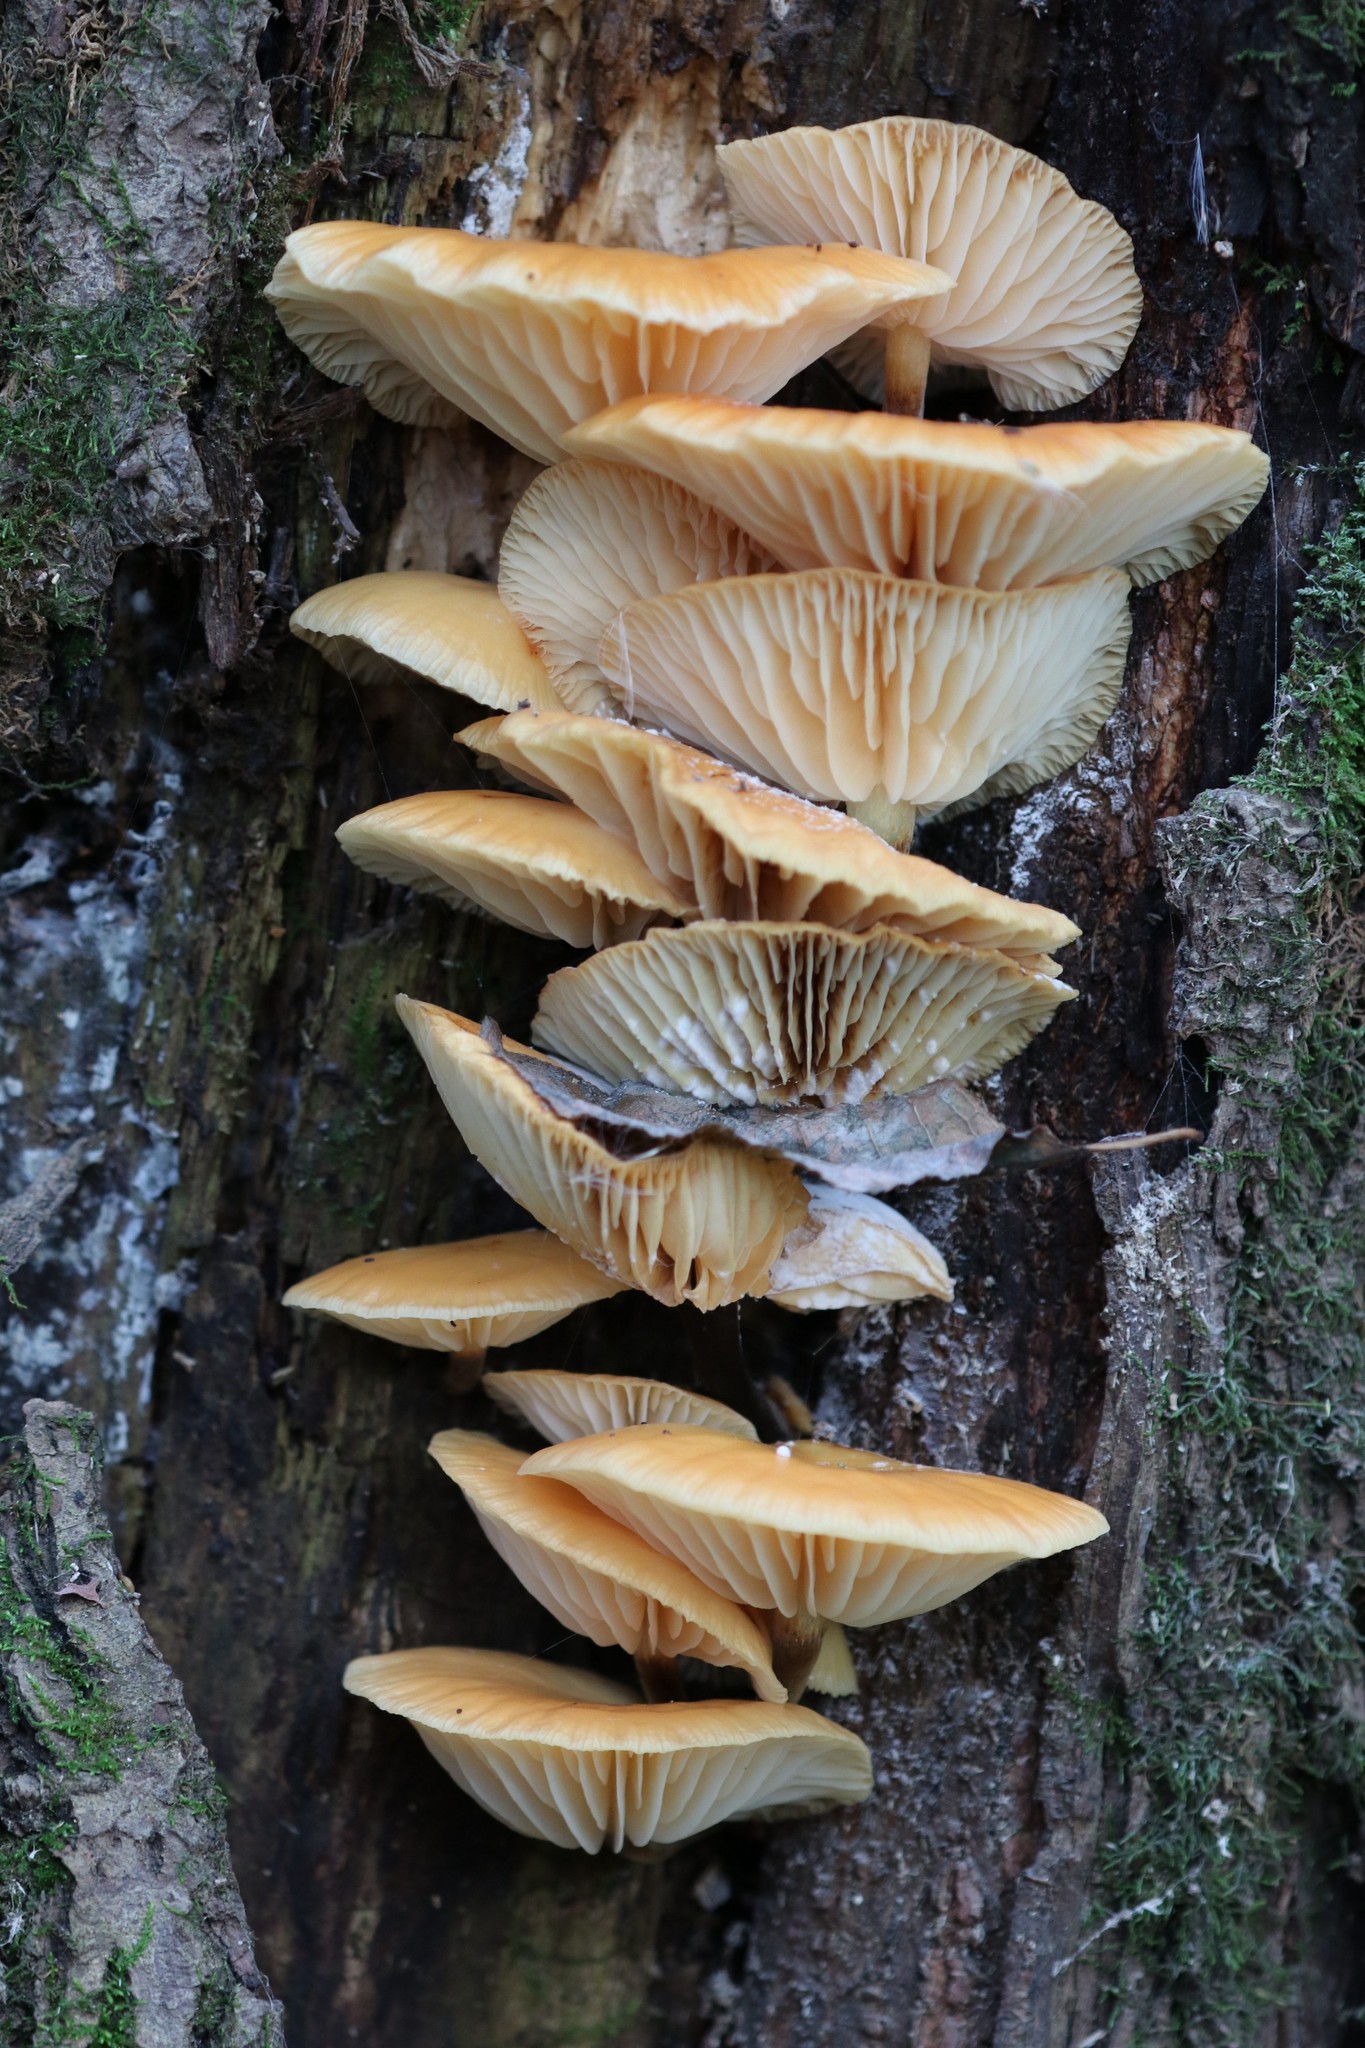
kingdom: Fungi
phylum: Basidiomycota
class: Agaricomycetes
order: Agaricales
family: Physalacriaceae
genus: Flammulina
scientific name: Flammulina
